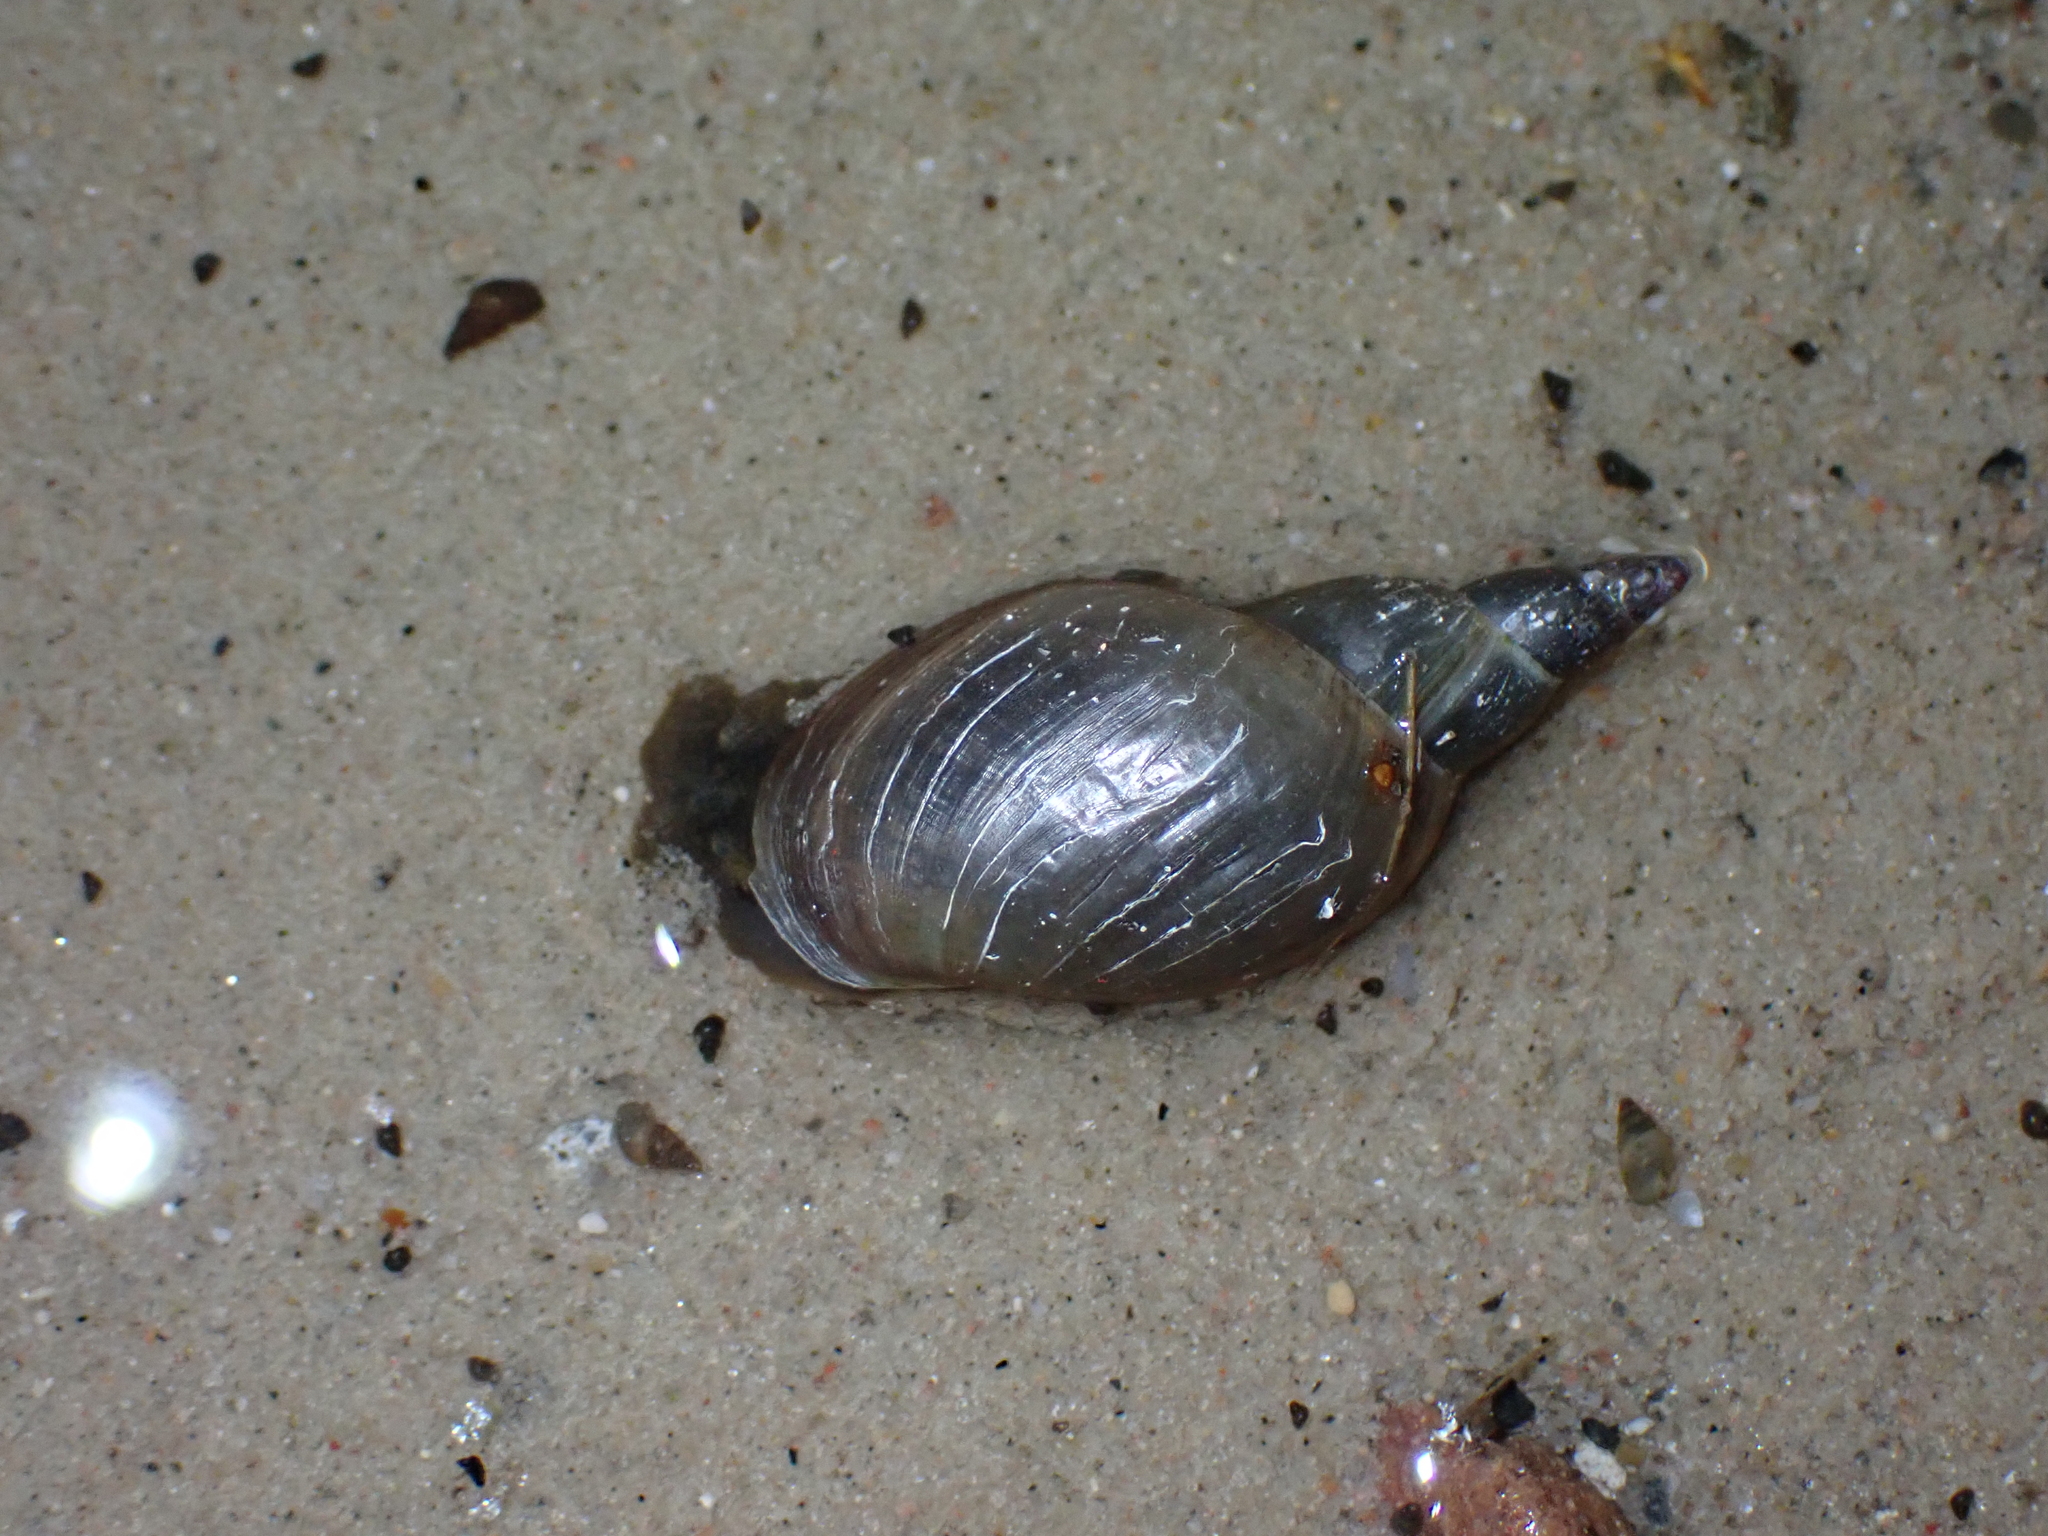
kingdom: Animalia
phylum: Mollusca
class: Gastropoda
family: Lymnaeidae
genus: Lymnaea
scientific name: Lymnaea stagnalis
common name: Great pond snail
